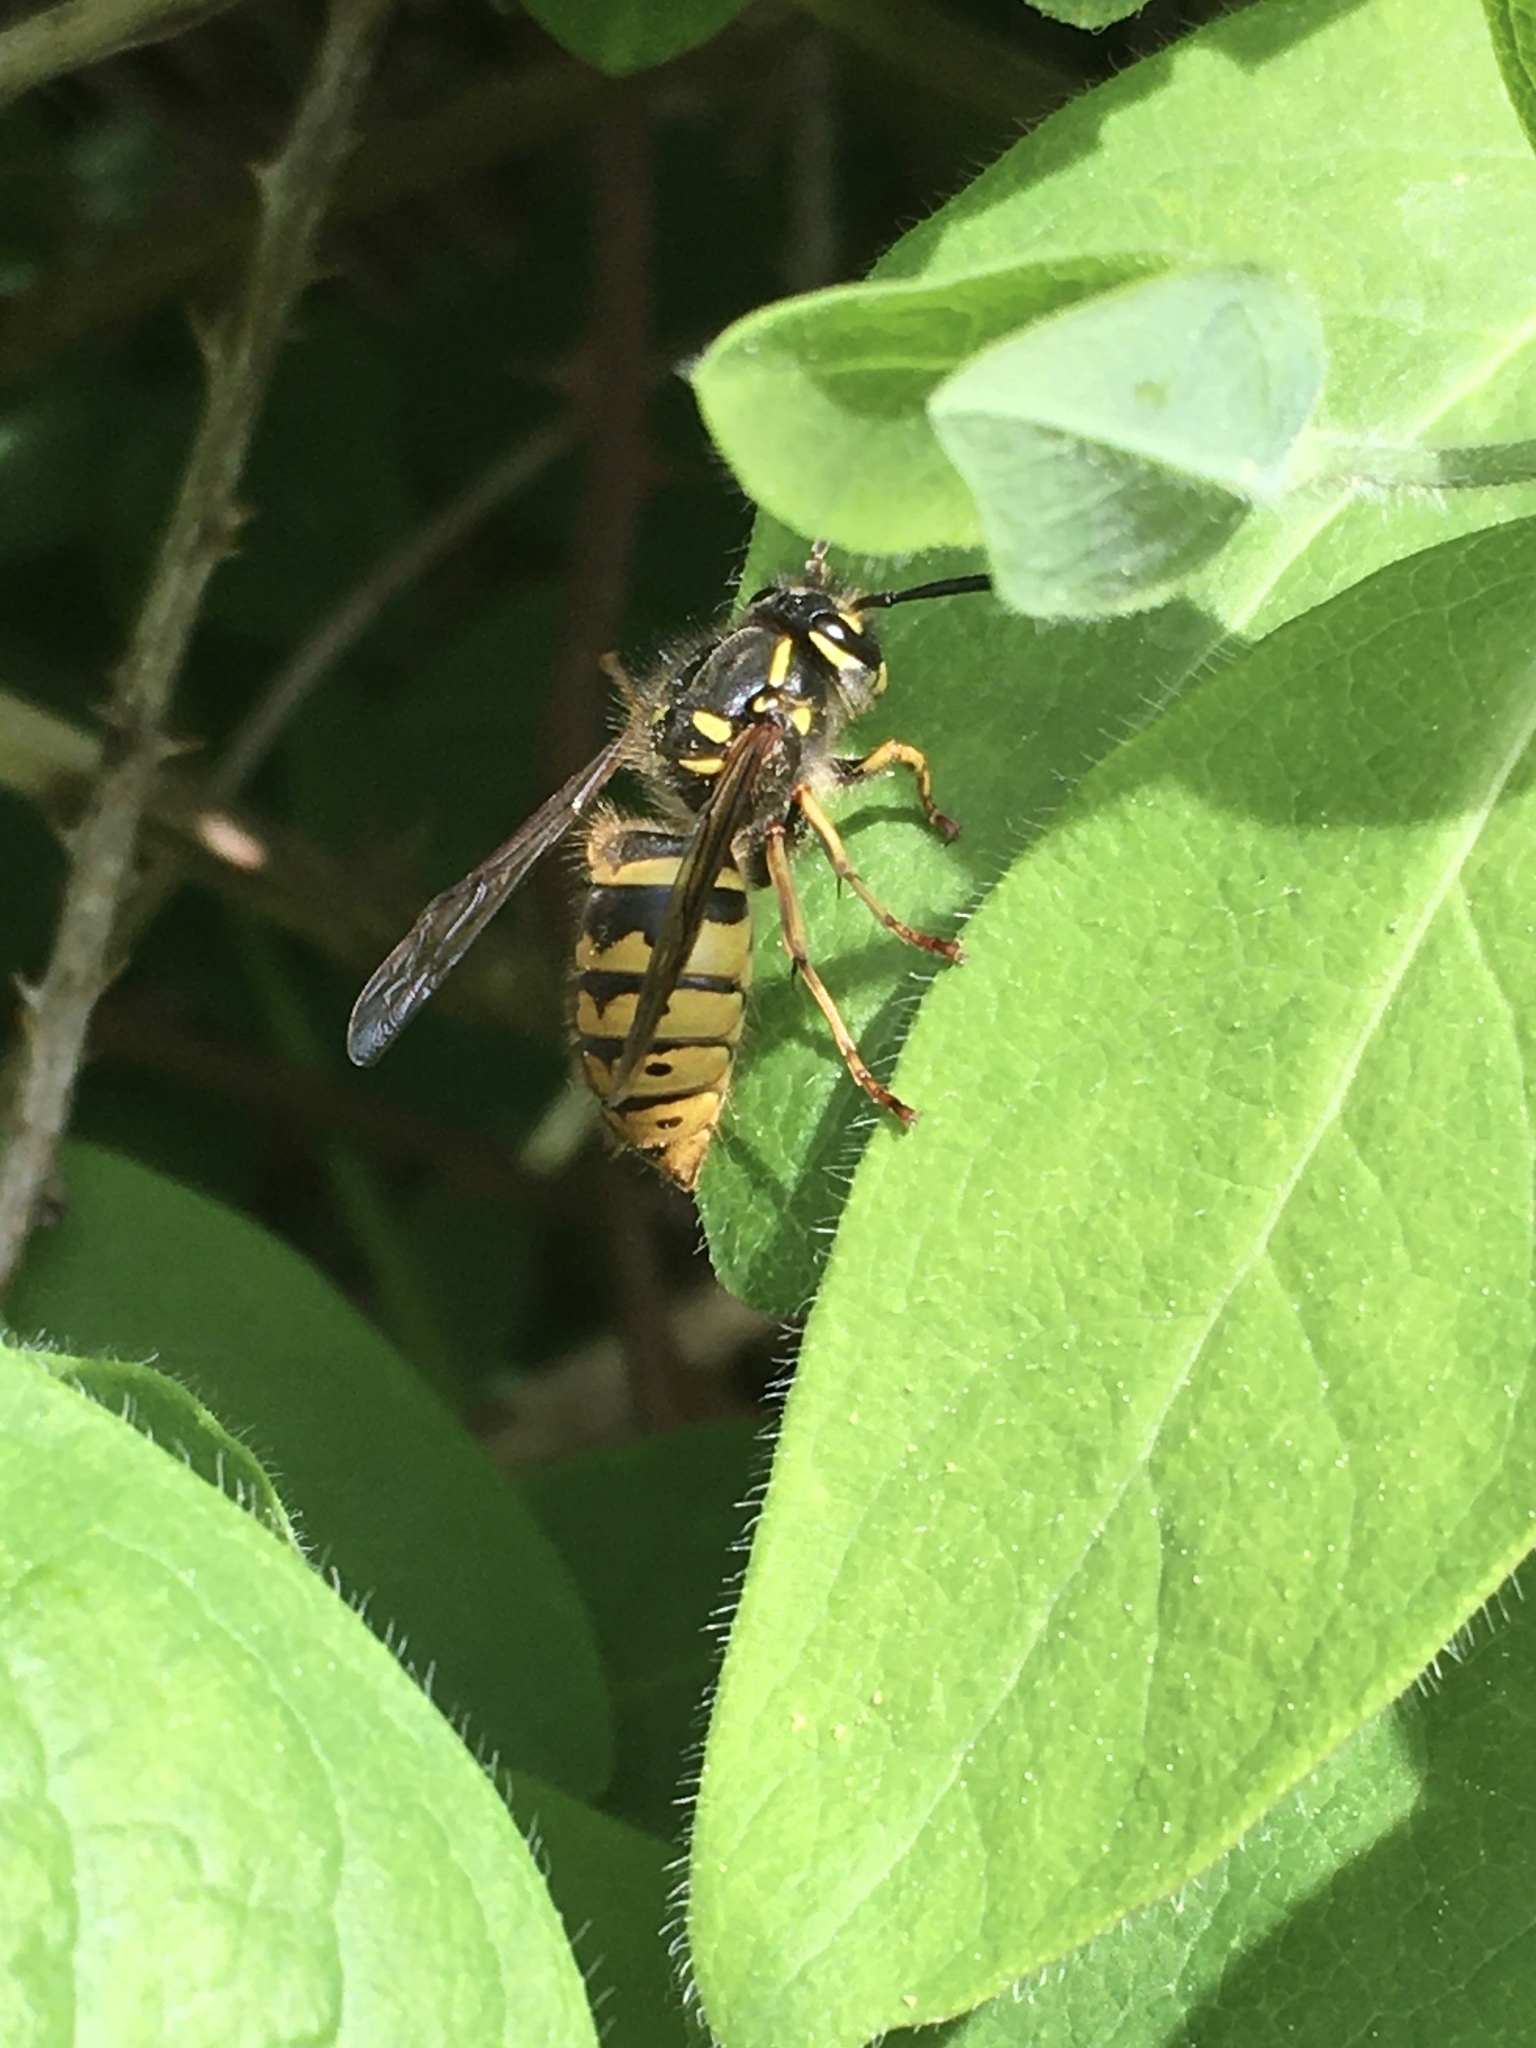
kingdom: Animalia
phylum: Arthropoda
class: Insecta
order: Hymenoptera
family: Vespidae
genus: Vespula
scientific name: Vespula vulgaris
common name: Common wasp
